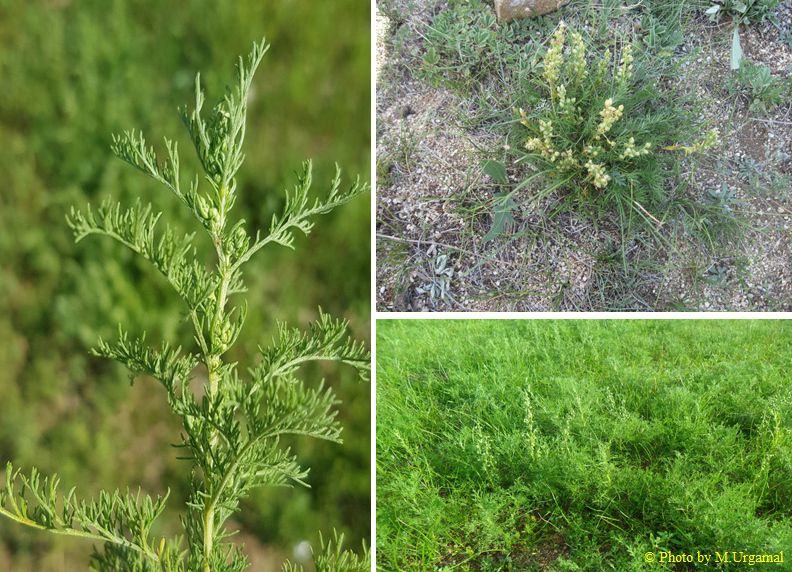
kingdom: Plantae
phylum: Tracheophyta
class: Magnoliopsida
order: Asterales
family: Asteraceae
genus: Artemisia
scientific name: Artemisia adamsii
